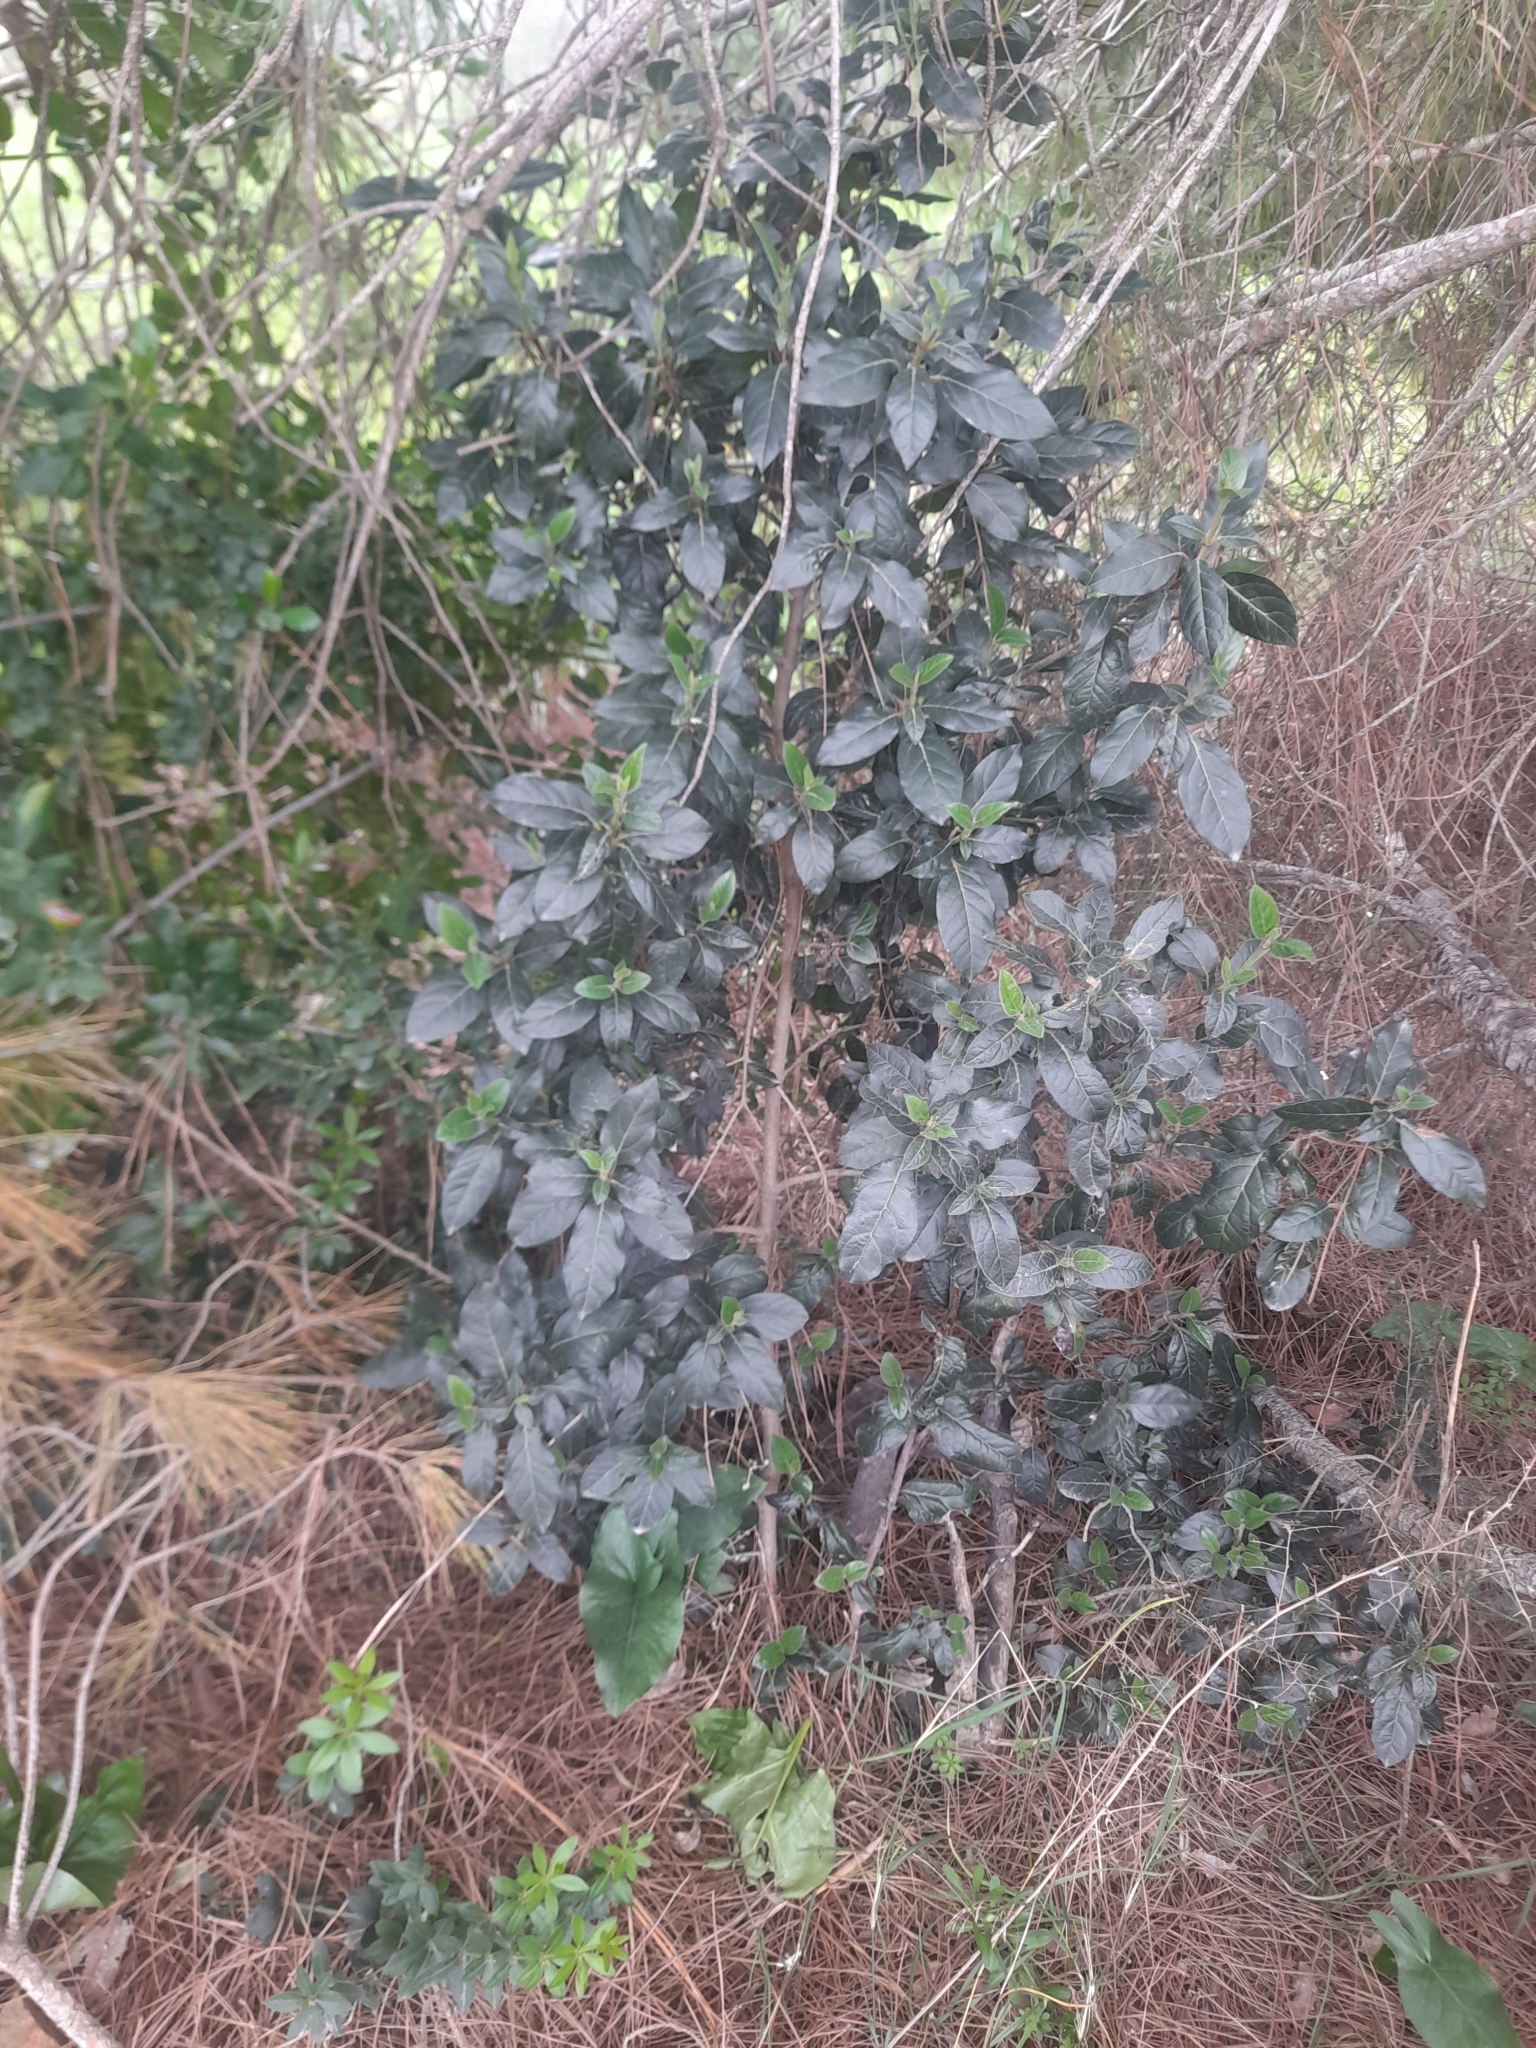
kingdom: Plantae
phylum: Tracheophyta
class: Magnoliopsida
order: Dipsacales
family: Viburnaceae
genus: Viburnum
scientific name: Viburnum tinus
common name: Laurustinus
